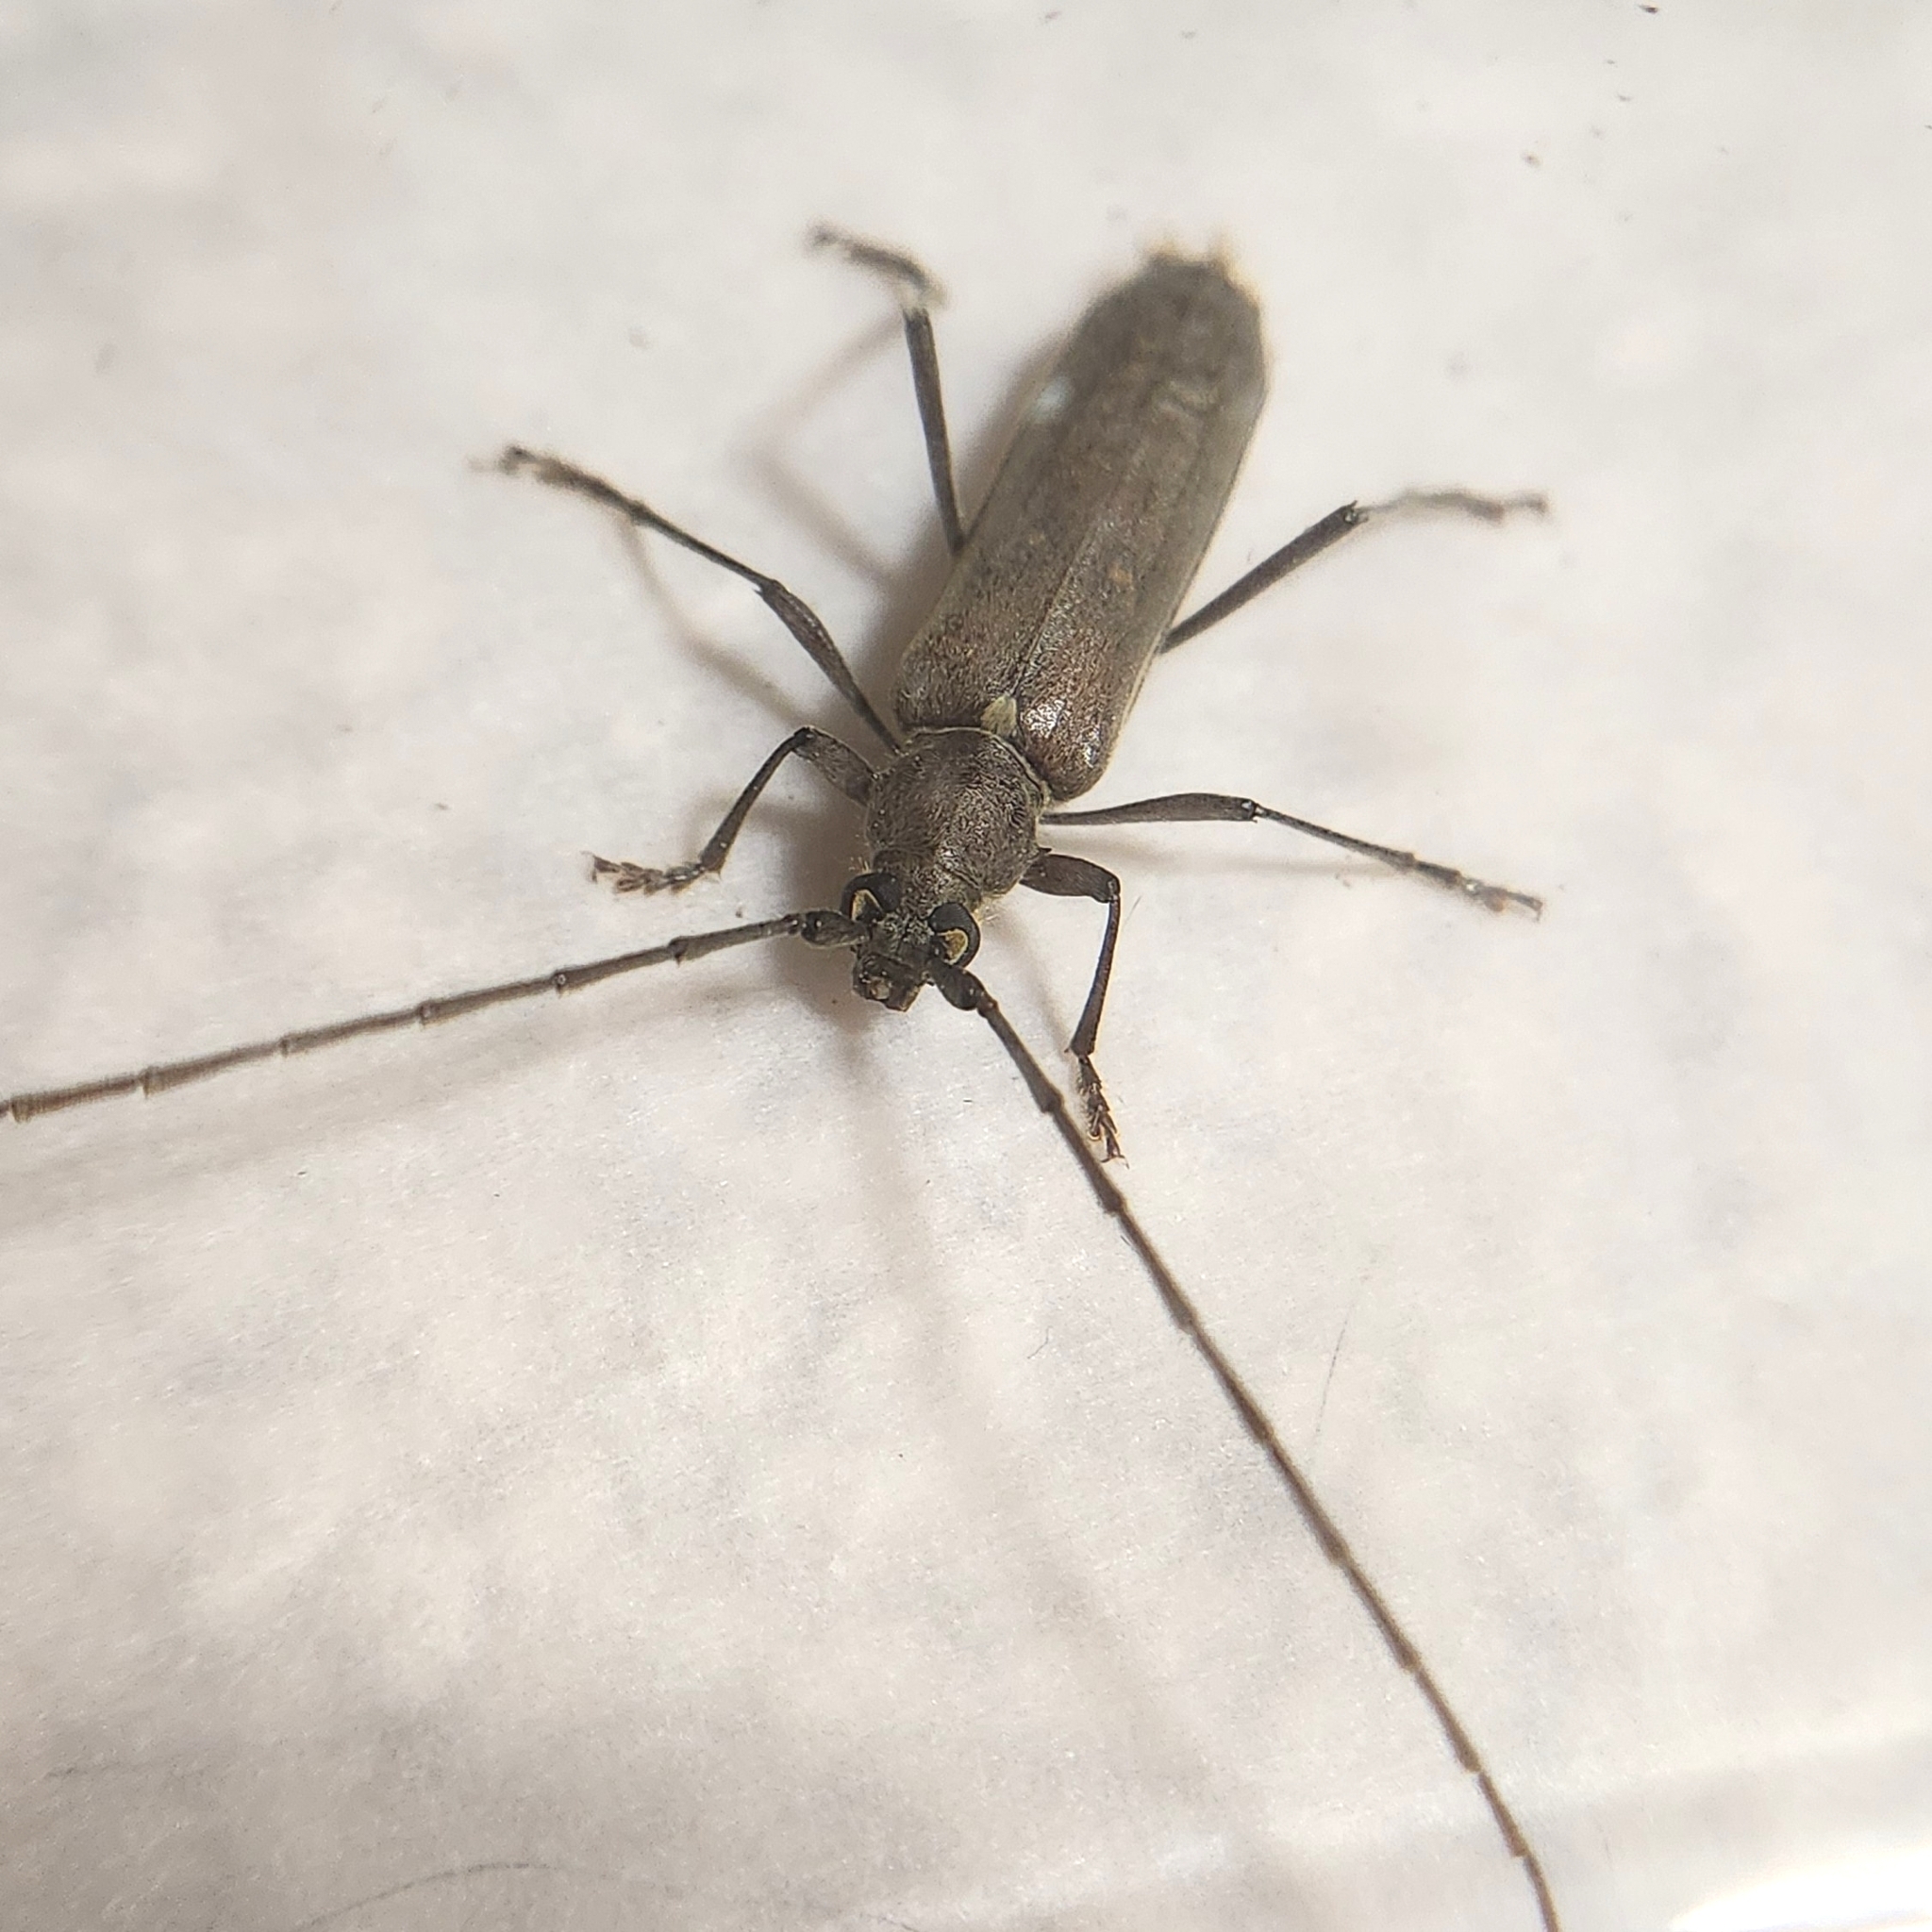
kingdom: Animalia
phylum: Arthropoda
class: Insecta
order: Coleoptera
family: Cerambycidae
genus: Knulliana
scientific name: Knulliana cincta
